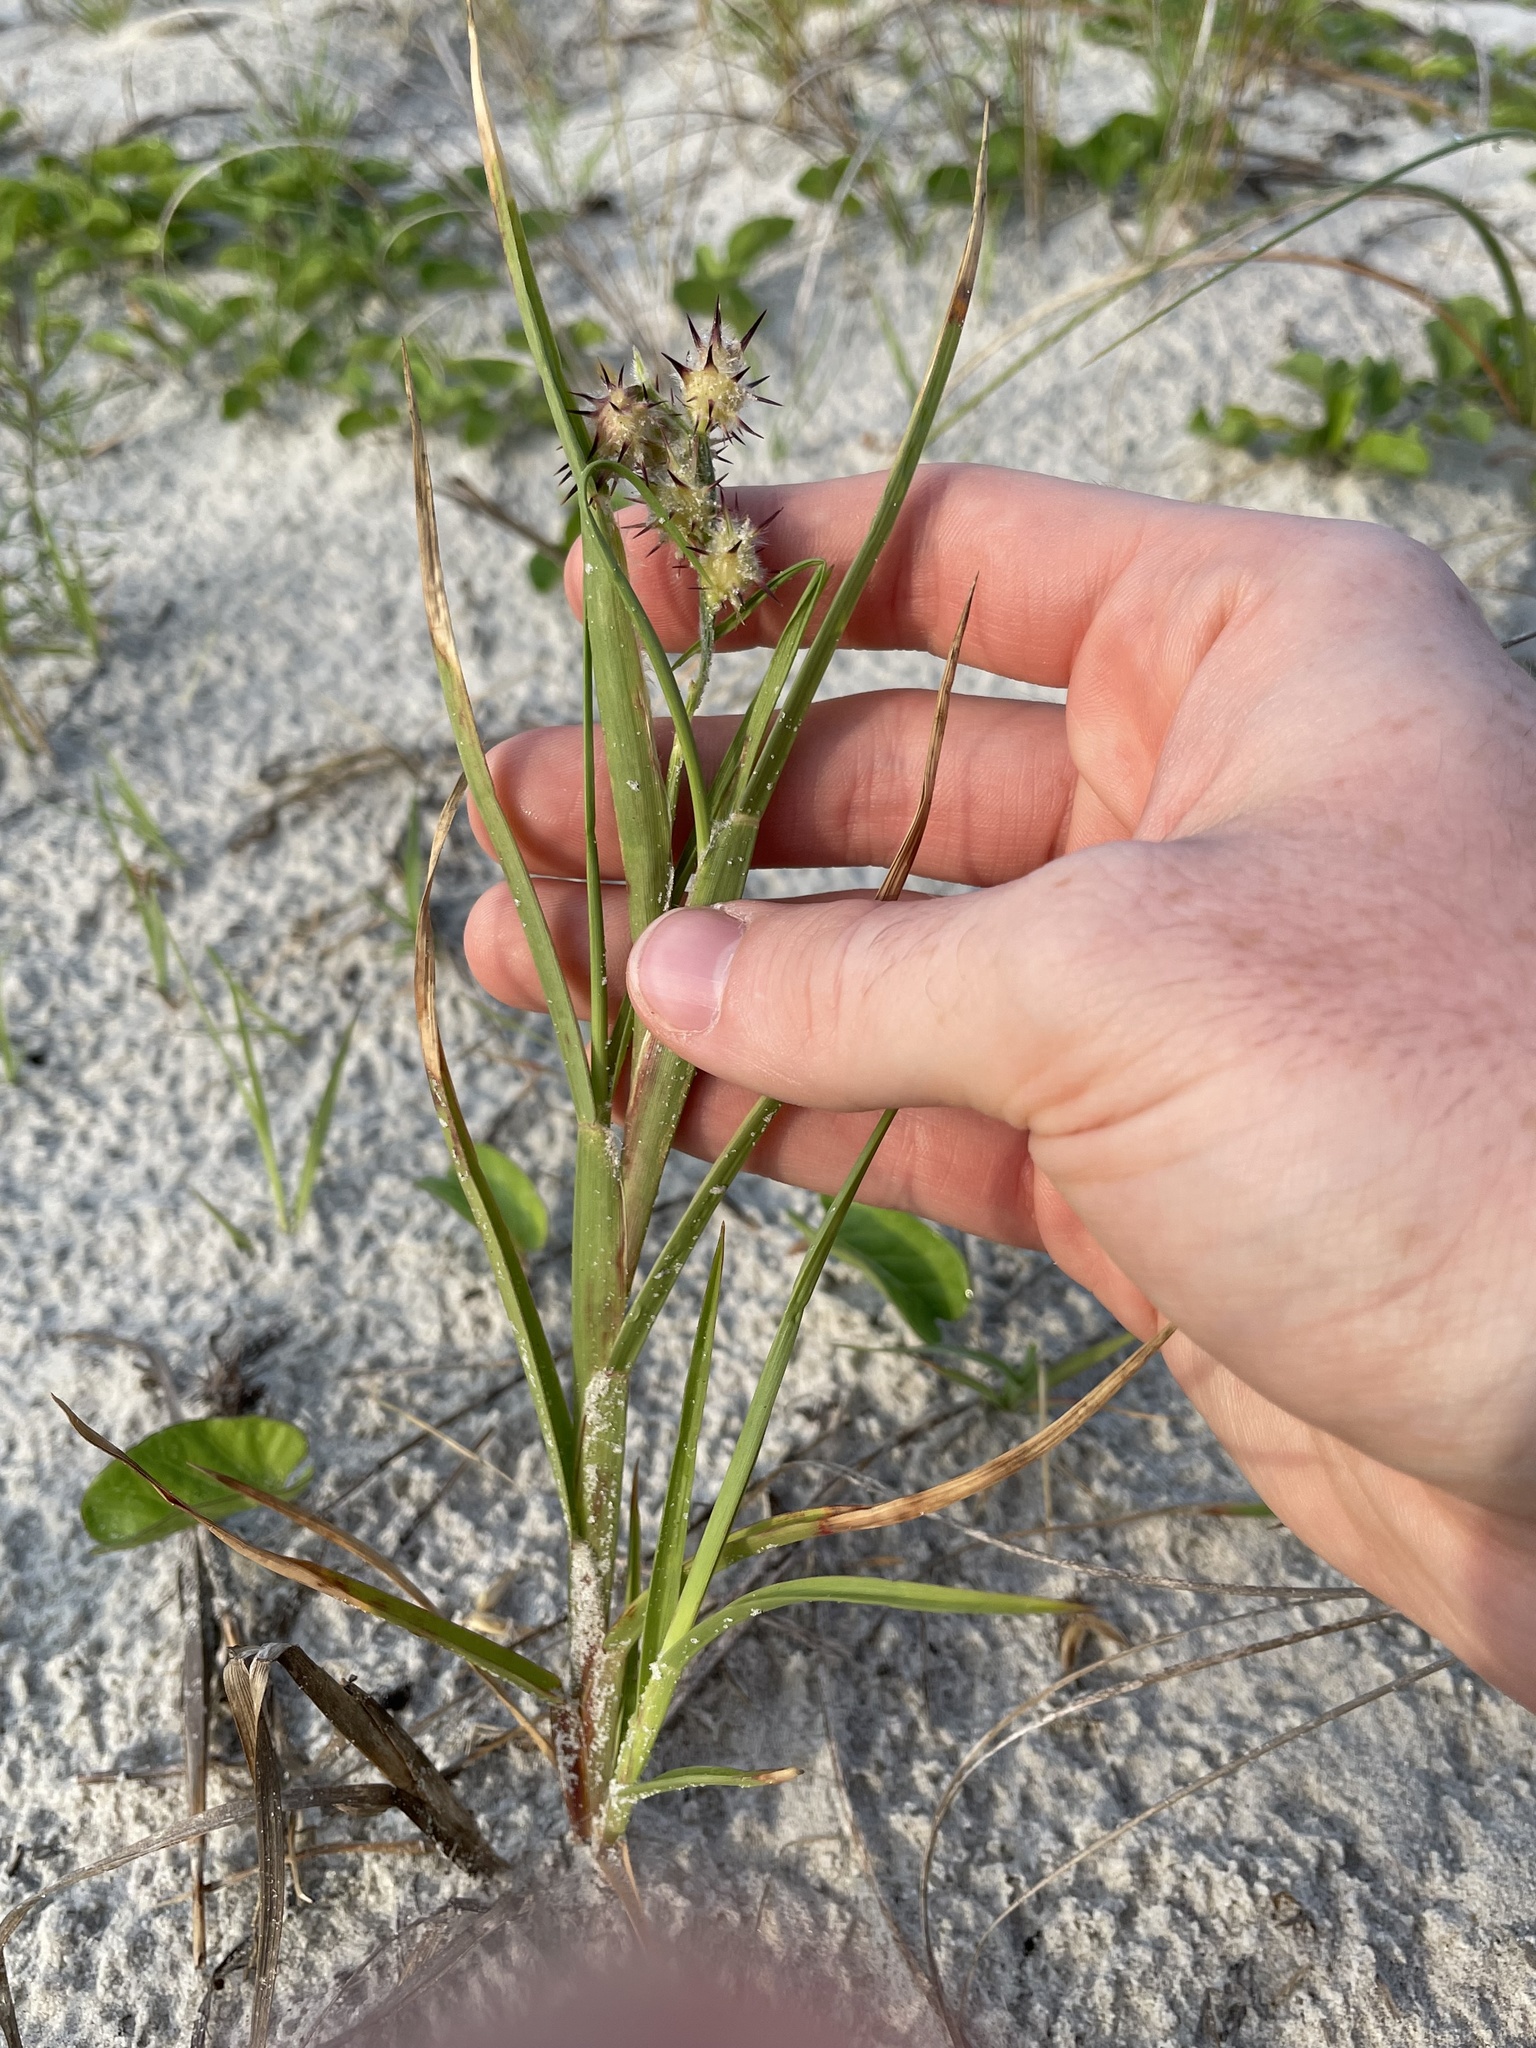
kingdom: Plantae
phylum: Tracheophyta
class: Liliopsida
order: Poales
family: Poaceae
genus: Cenchrus
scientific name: Cenchrus tribuloides
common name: Dune sandbur
